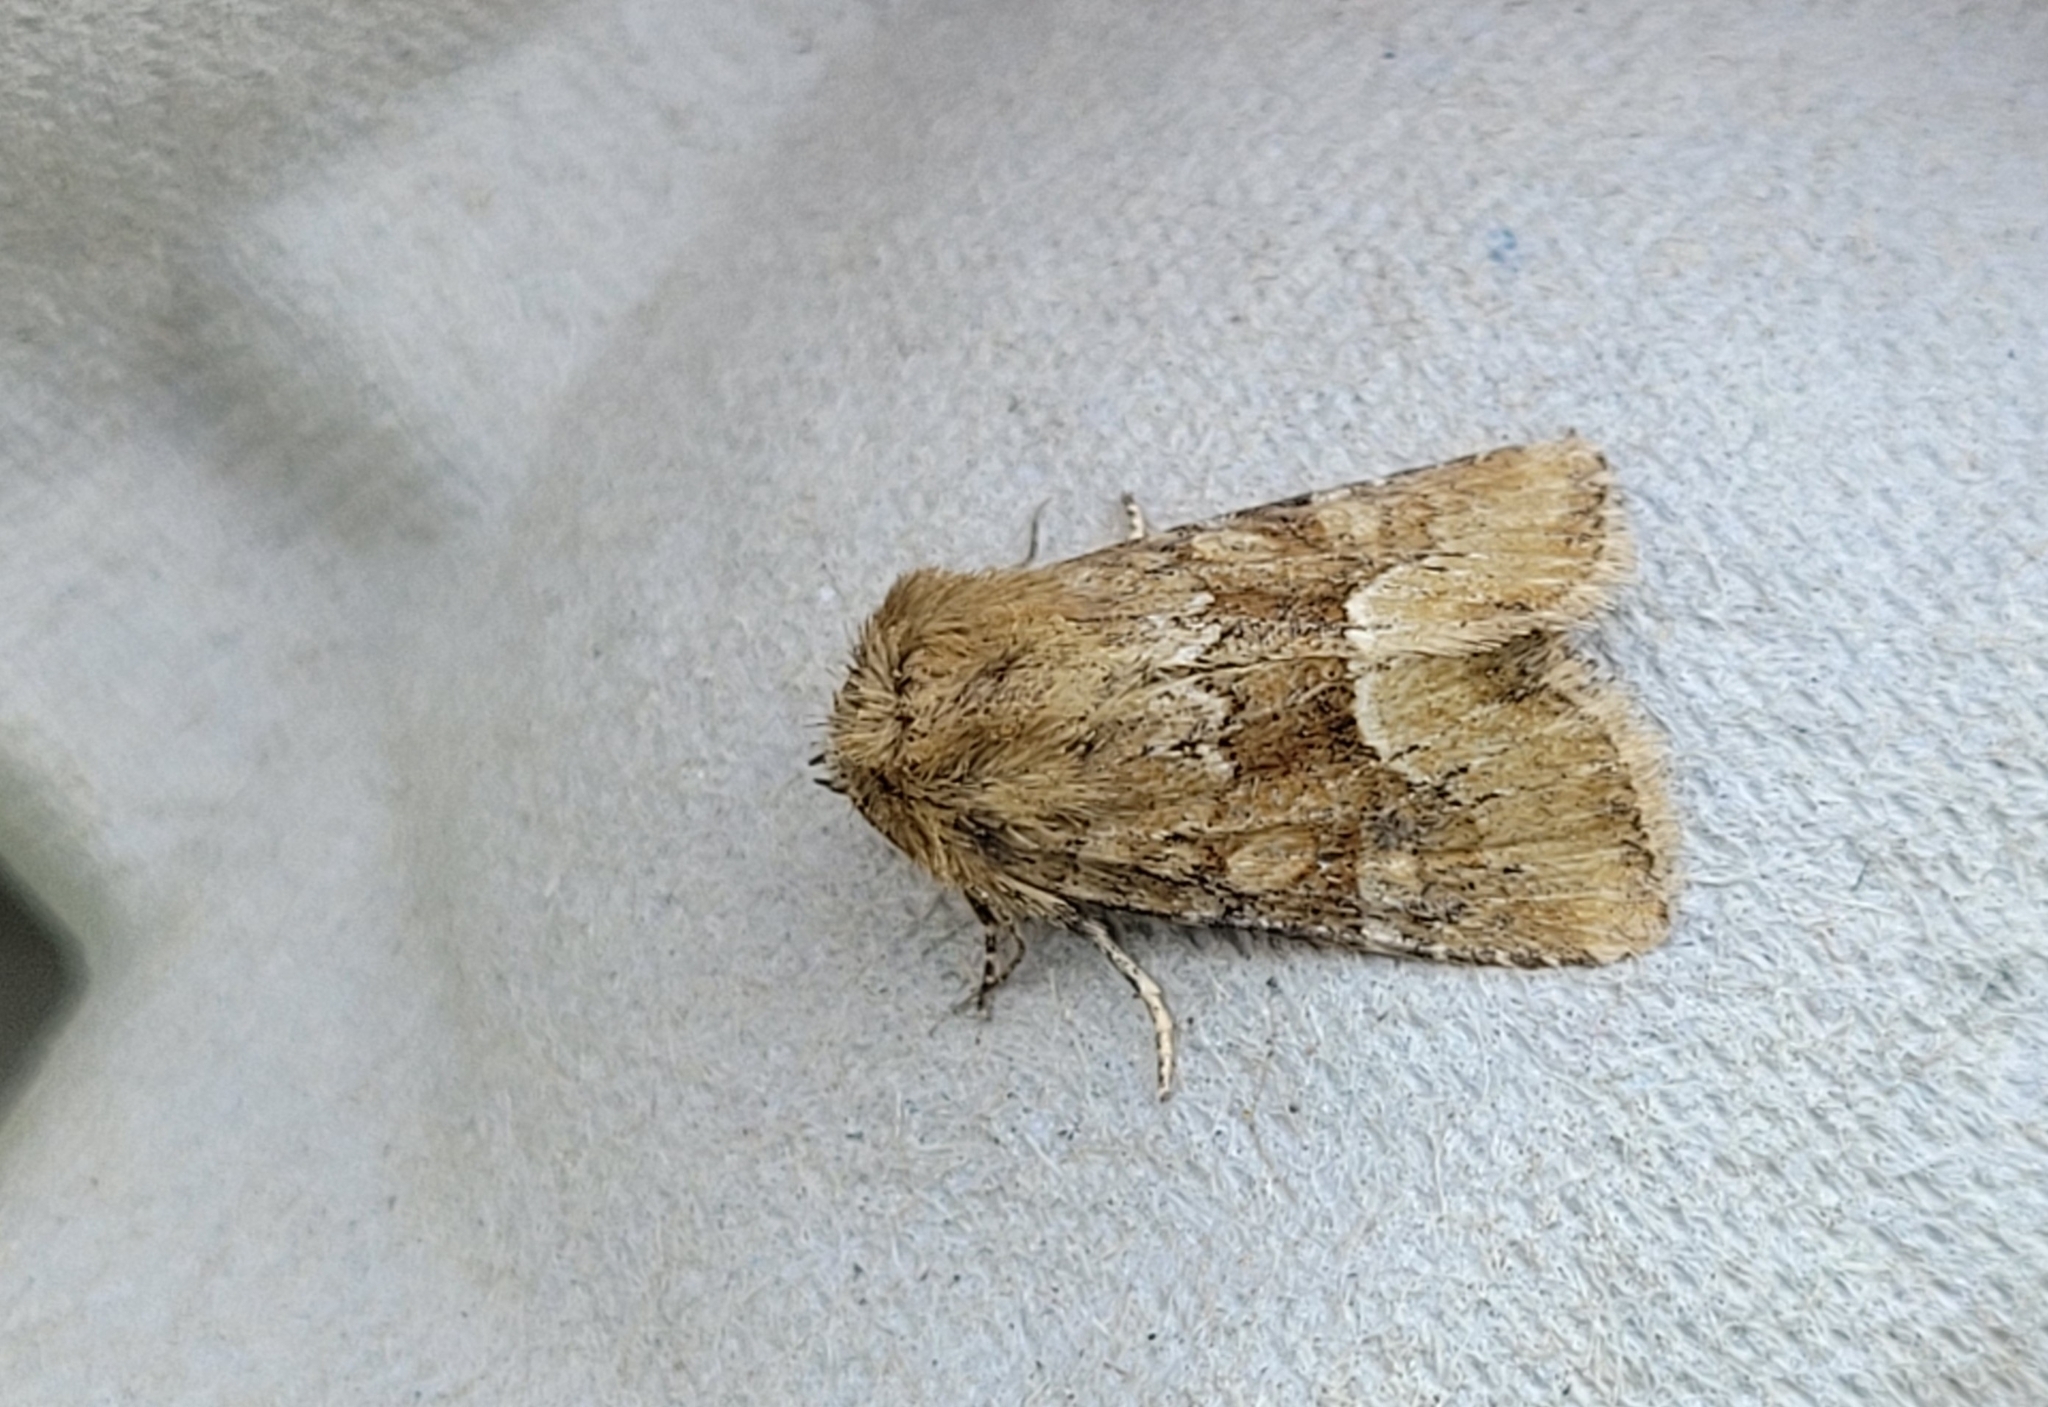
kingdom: Animalia
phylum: Arthropoda
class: Insecta
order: Lepidoptera
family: Noctuidae
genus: Oligia
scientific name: Oligia fasciuncula
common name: Middle-barred minor
